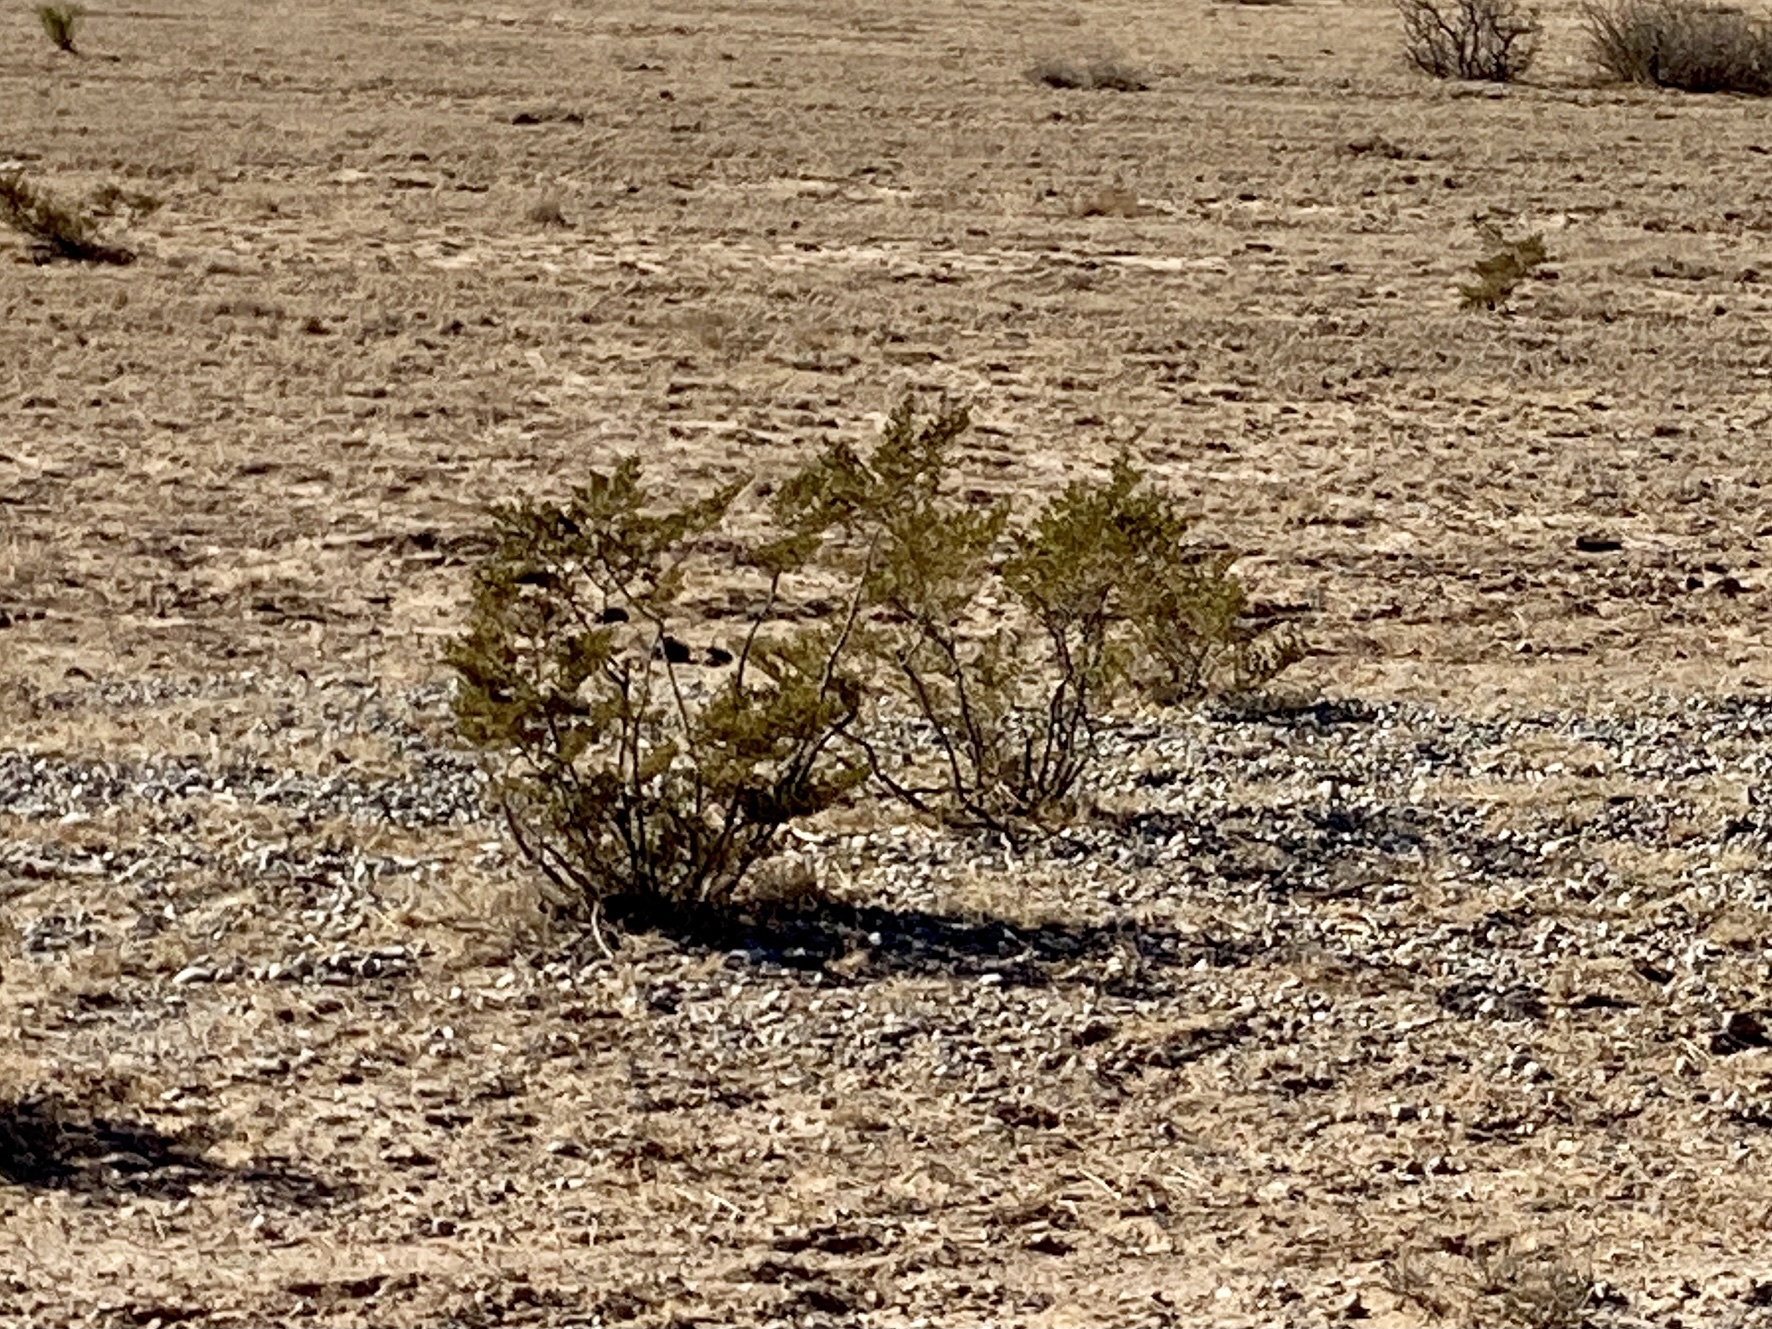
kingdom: Plantae
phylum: Tracheophyta
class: Magnoliopsida
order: Zygophyllales
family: Zygophyllaceae
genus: Larrea
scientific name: Larrea tridentata
